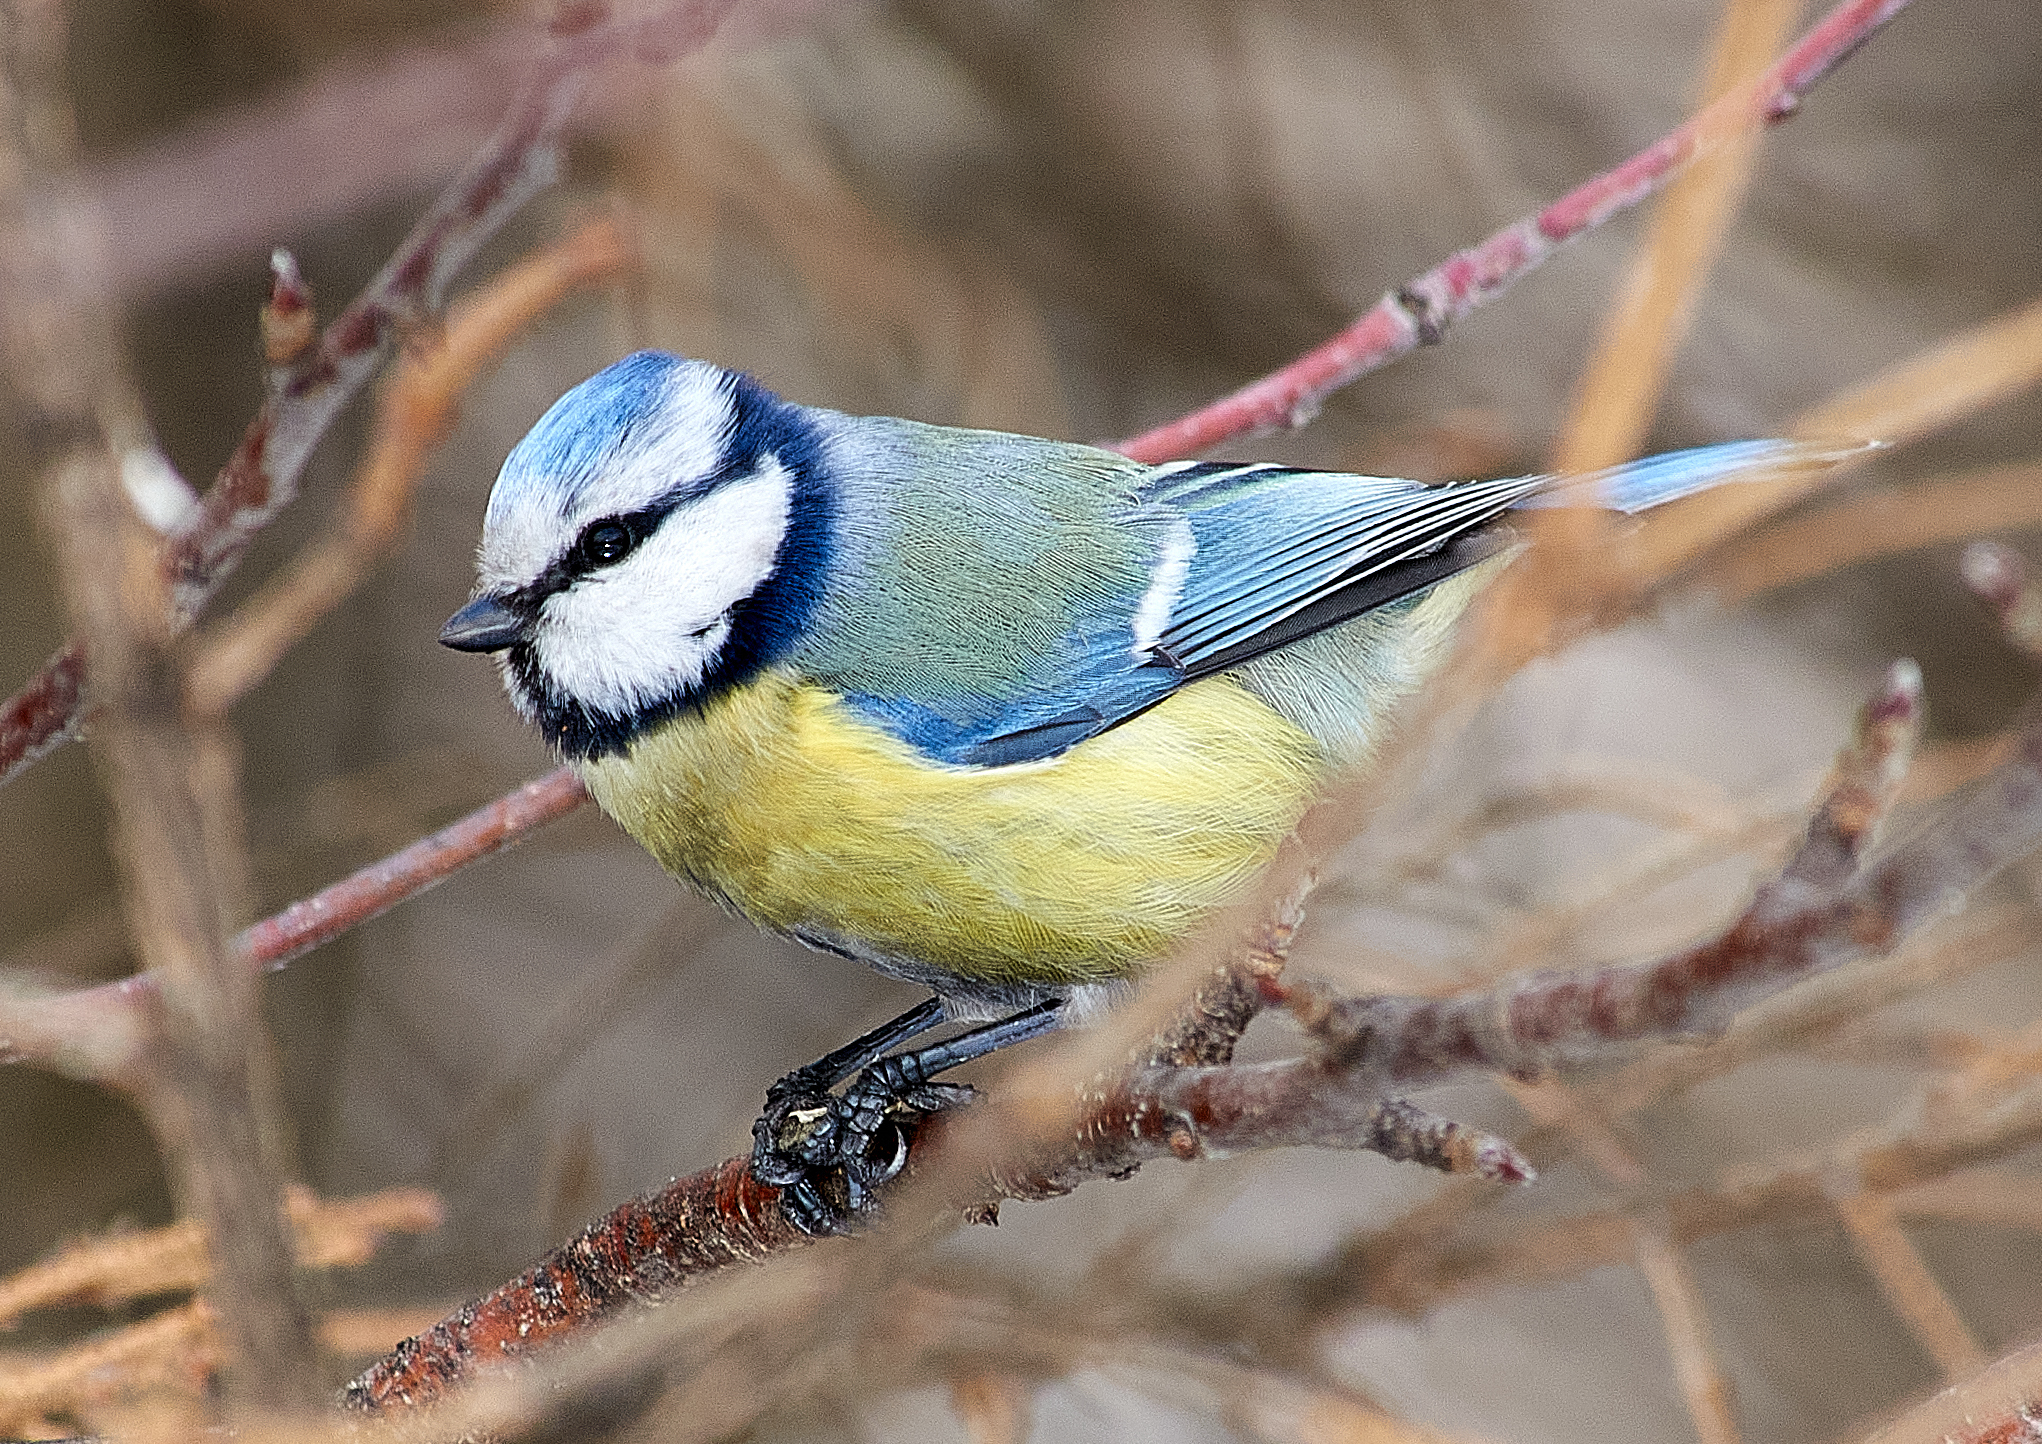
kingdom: Animalia
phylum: Chordata
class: Aves
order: Passeriformes
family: Paridae
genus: Cyanistes
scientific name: Cyanistes caeruleus
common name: Eurasian blue tit
